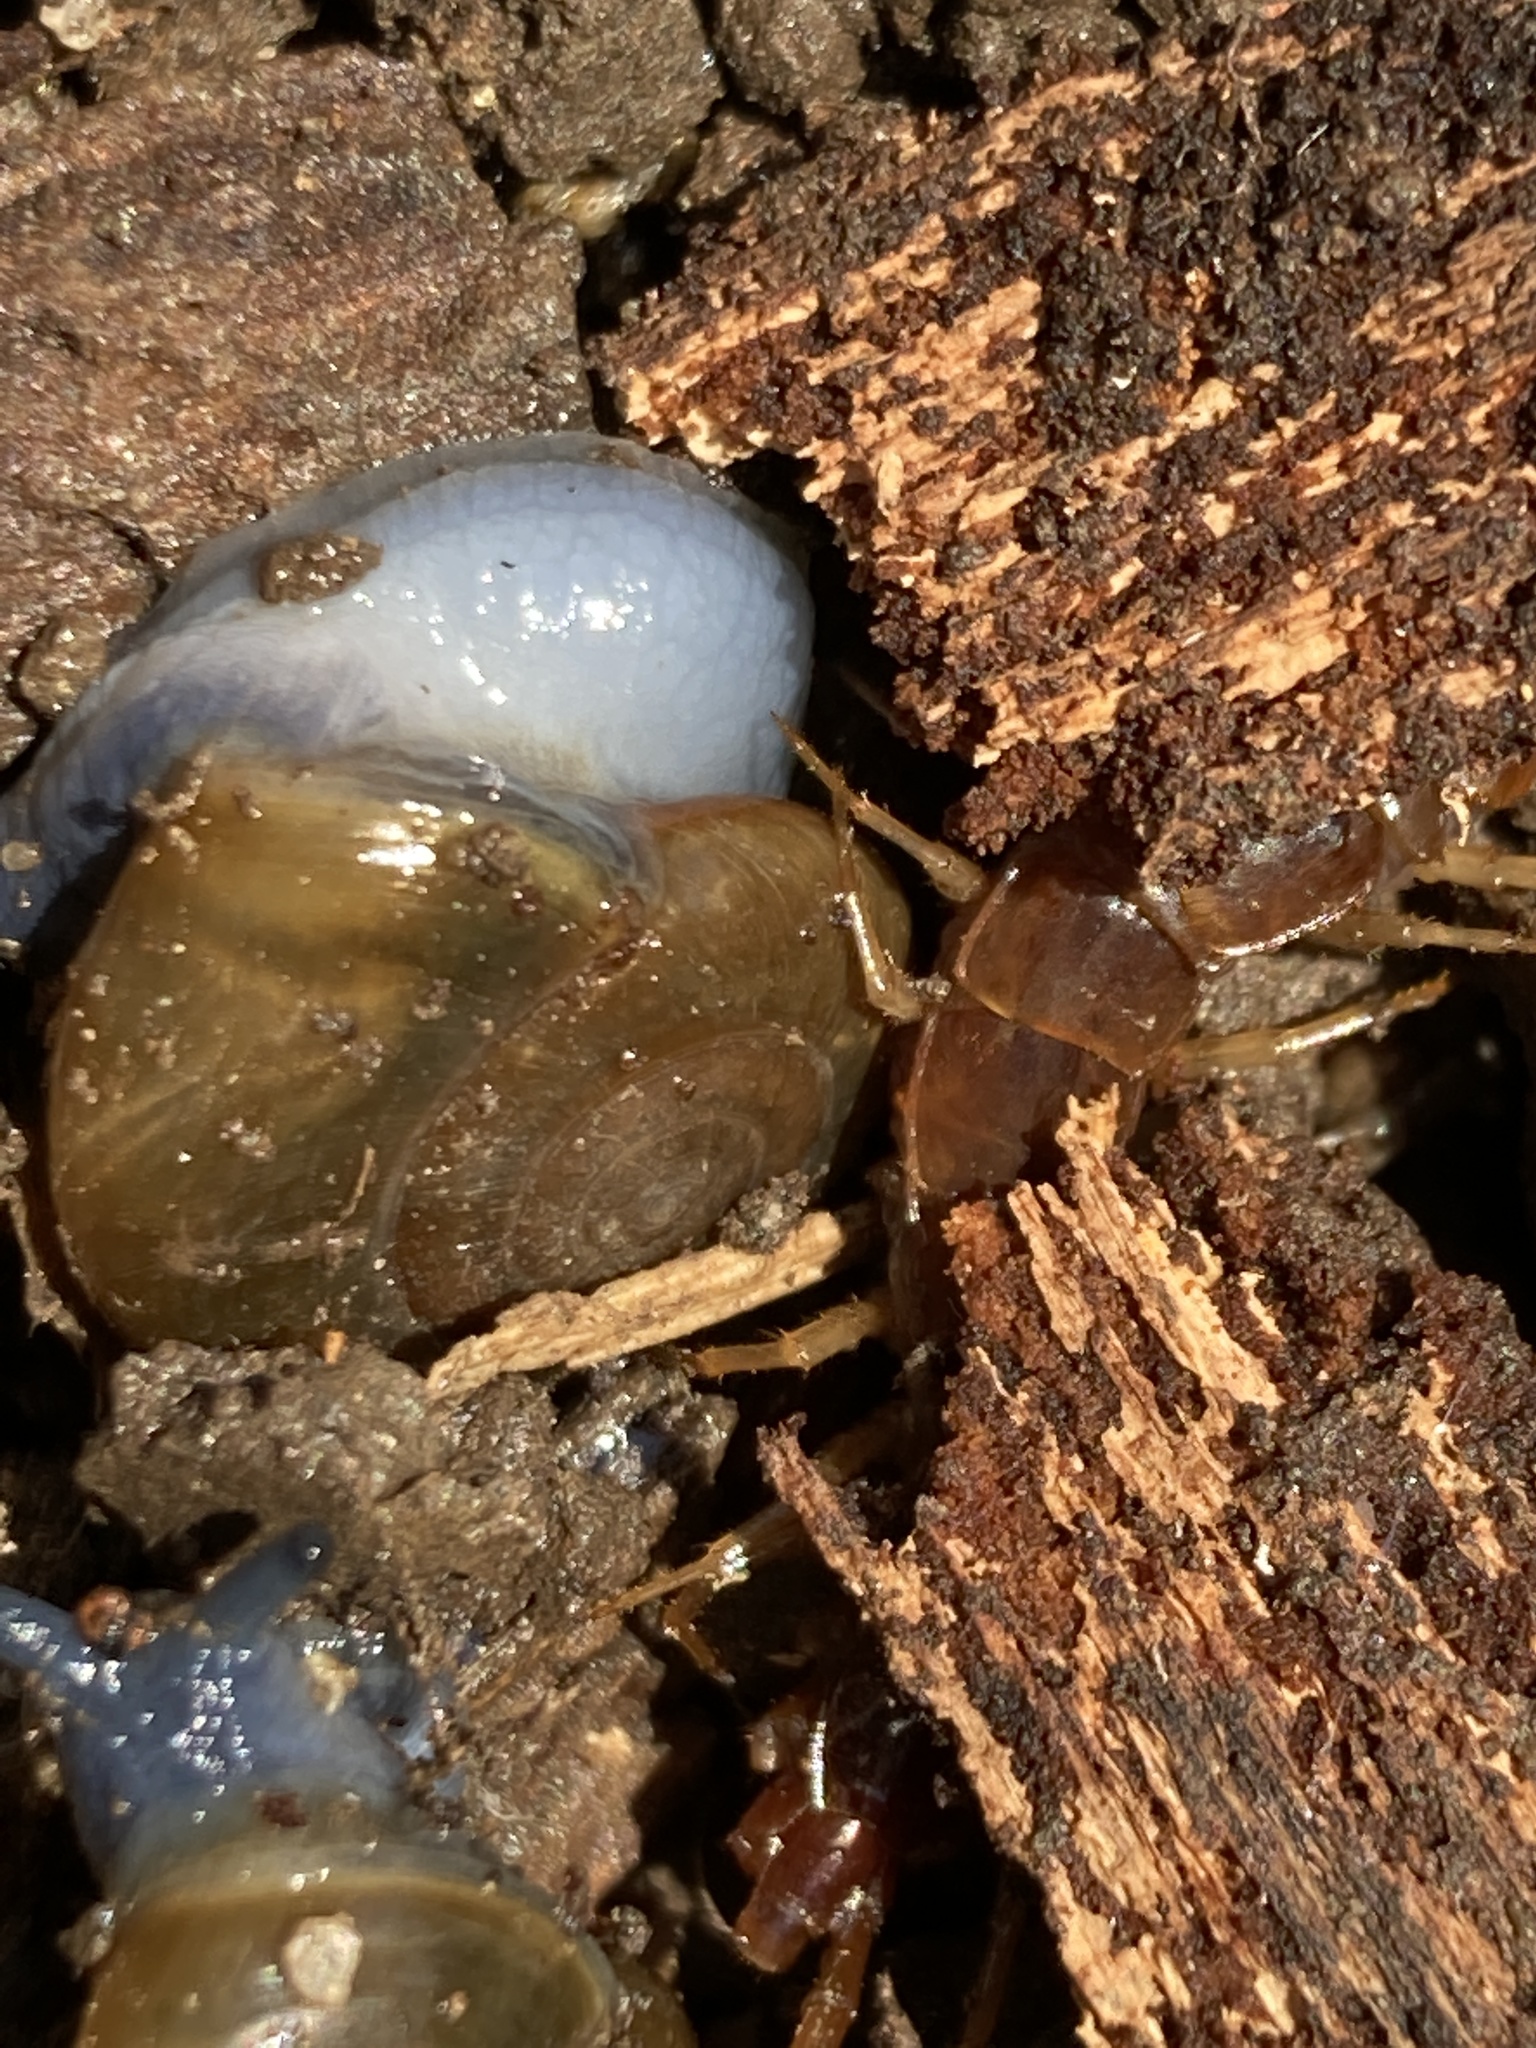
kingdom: Animalia
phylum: Mollusca
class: Gastropoda
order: Stylommatophora
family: Oxychilidae
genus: Oxychilus
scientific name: Oxychilus draparnaudi
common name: Draparnaud's glass snail
